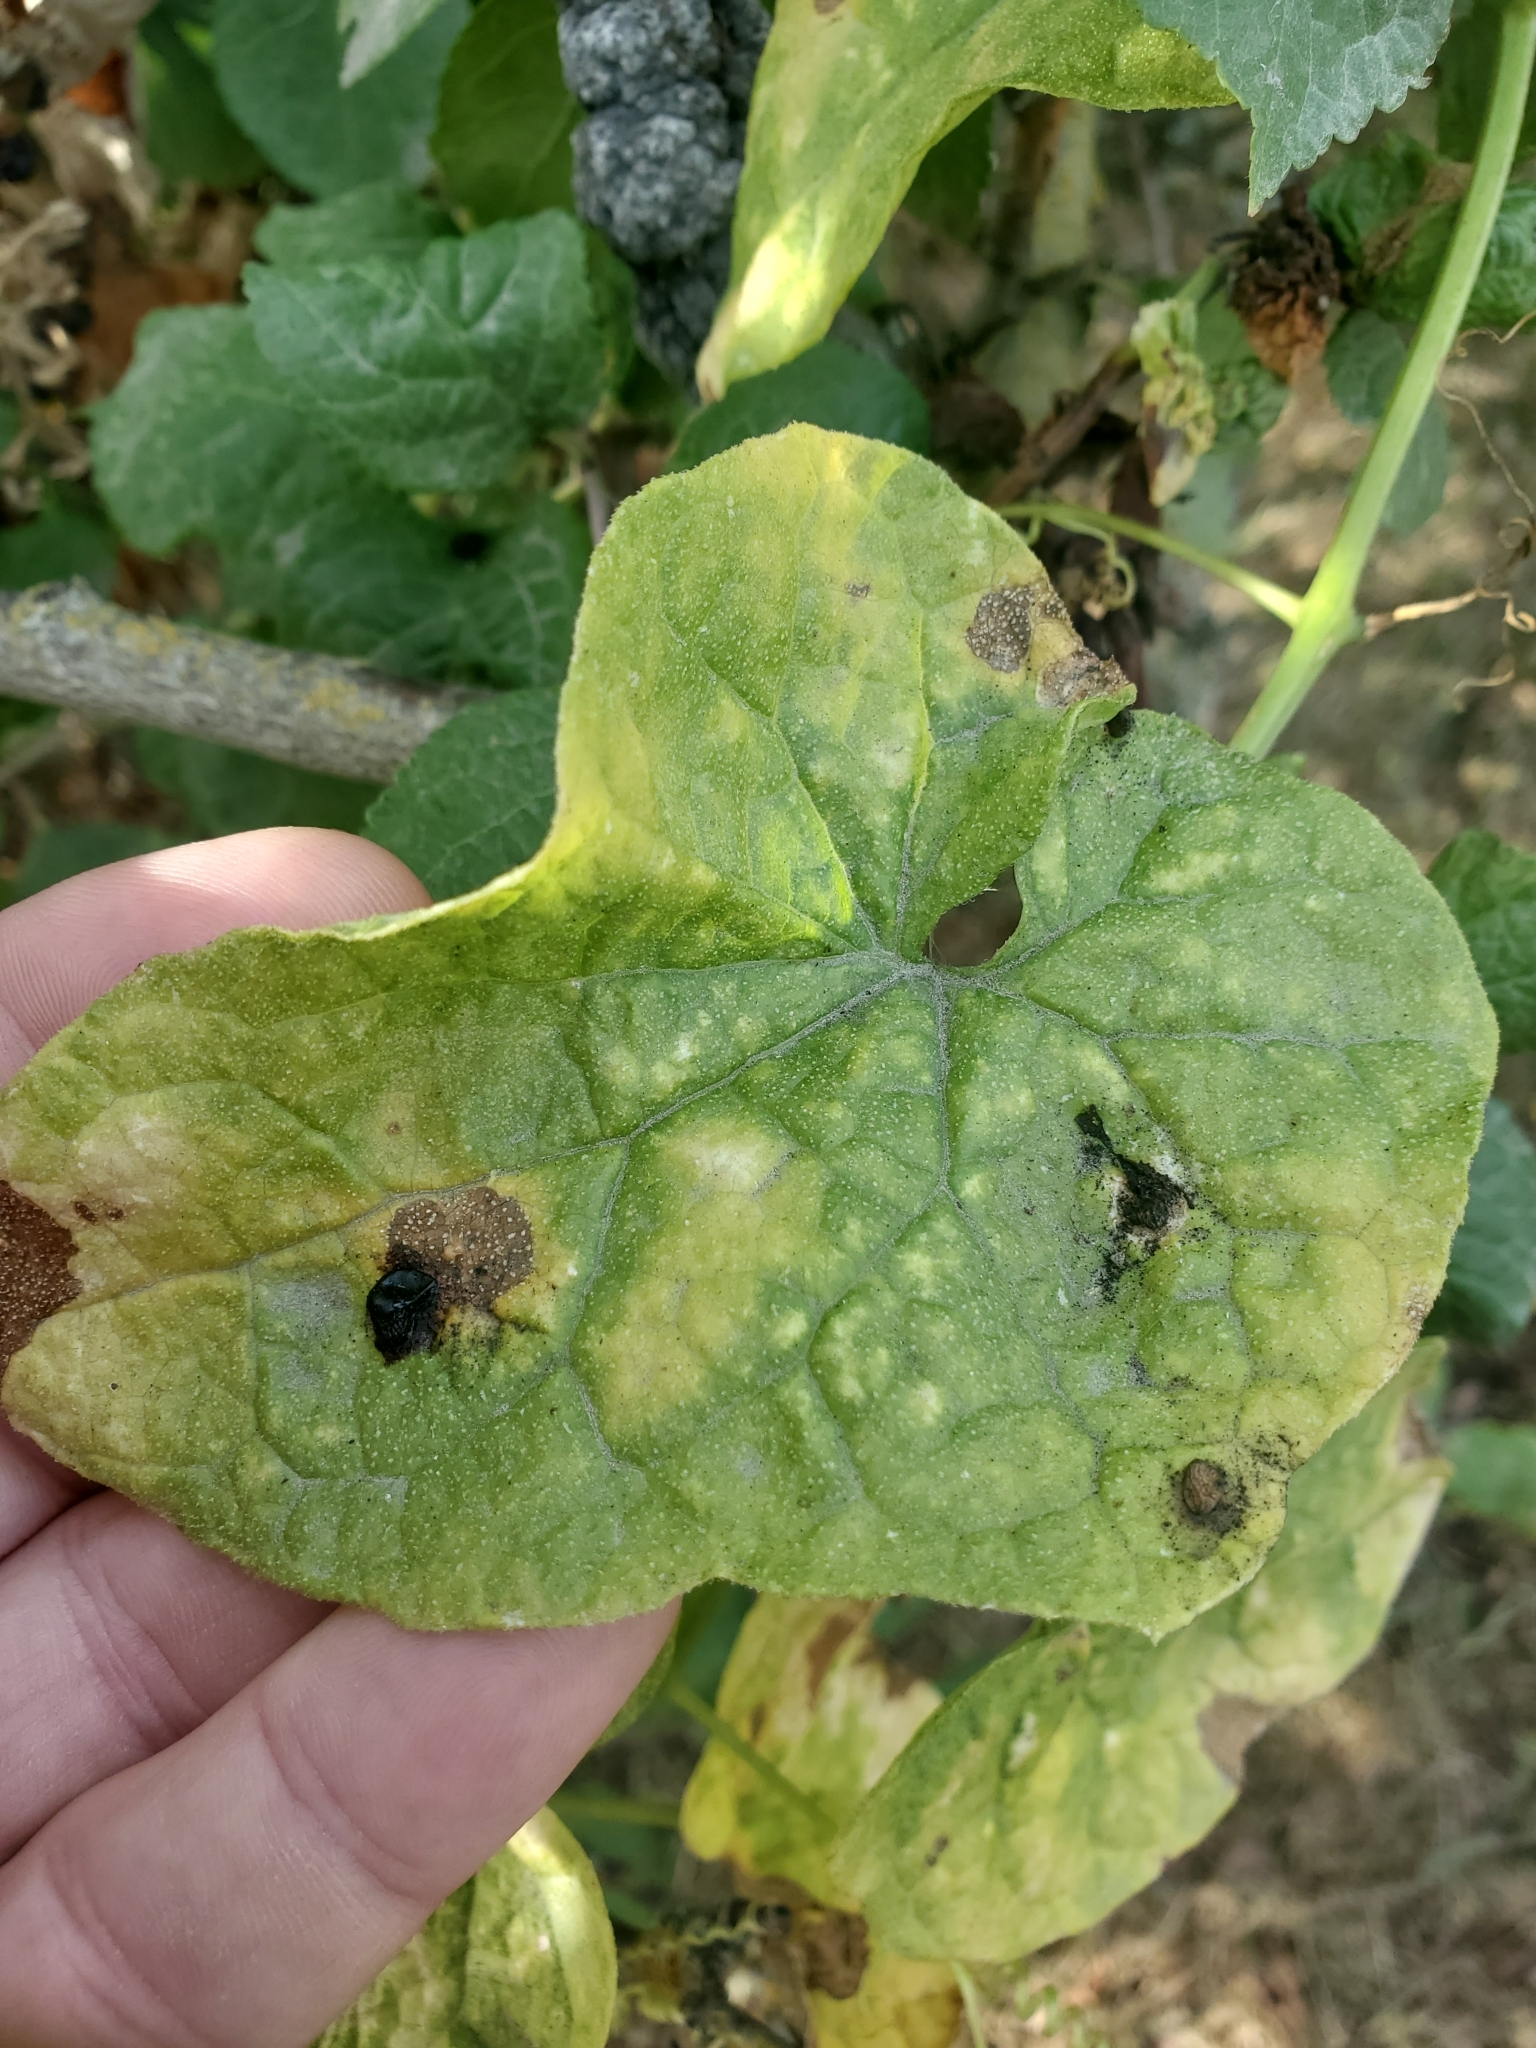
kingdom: Plantae
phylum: Tracheophyta
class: Magnoliopsida
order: Cucurbitales
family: Cucurbitaceae
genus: Marah
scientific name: Marah oregana
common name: Coastal manroot
